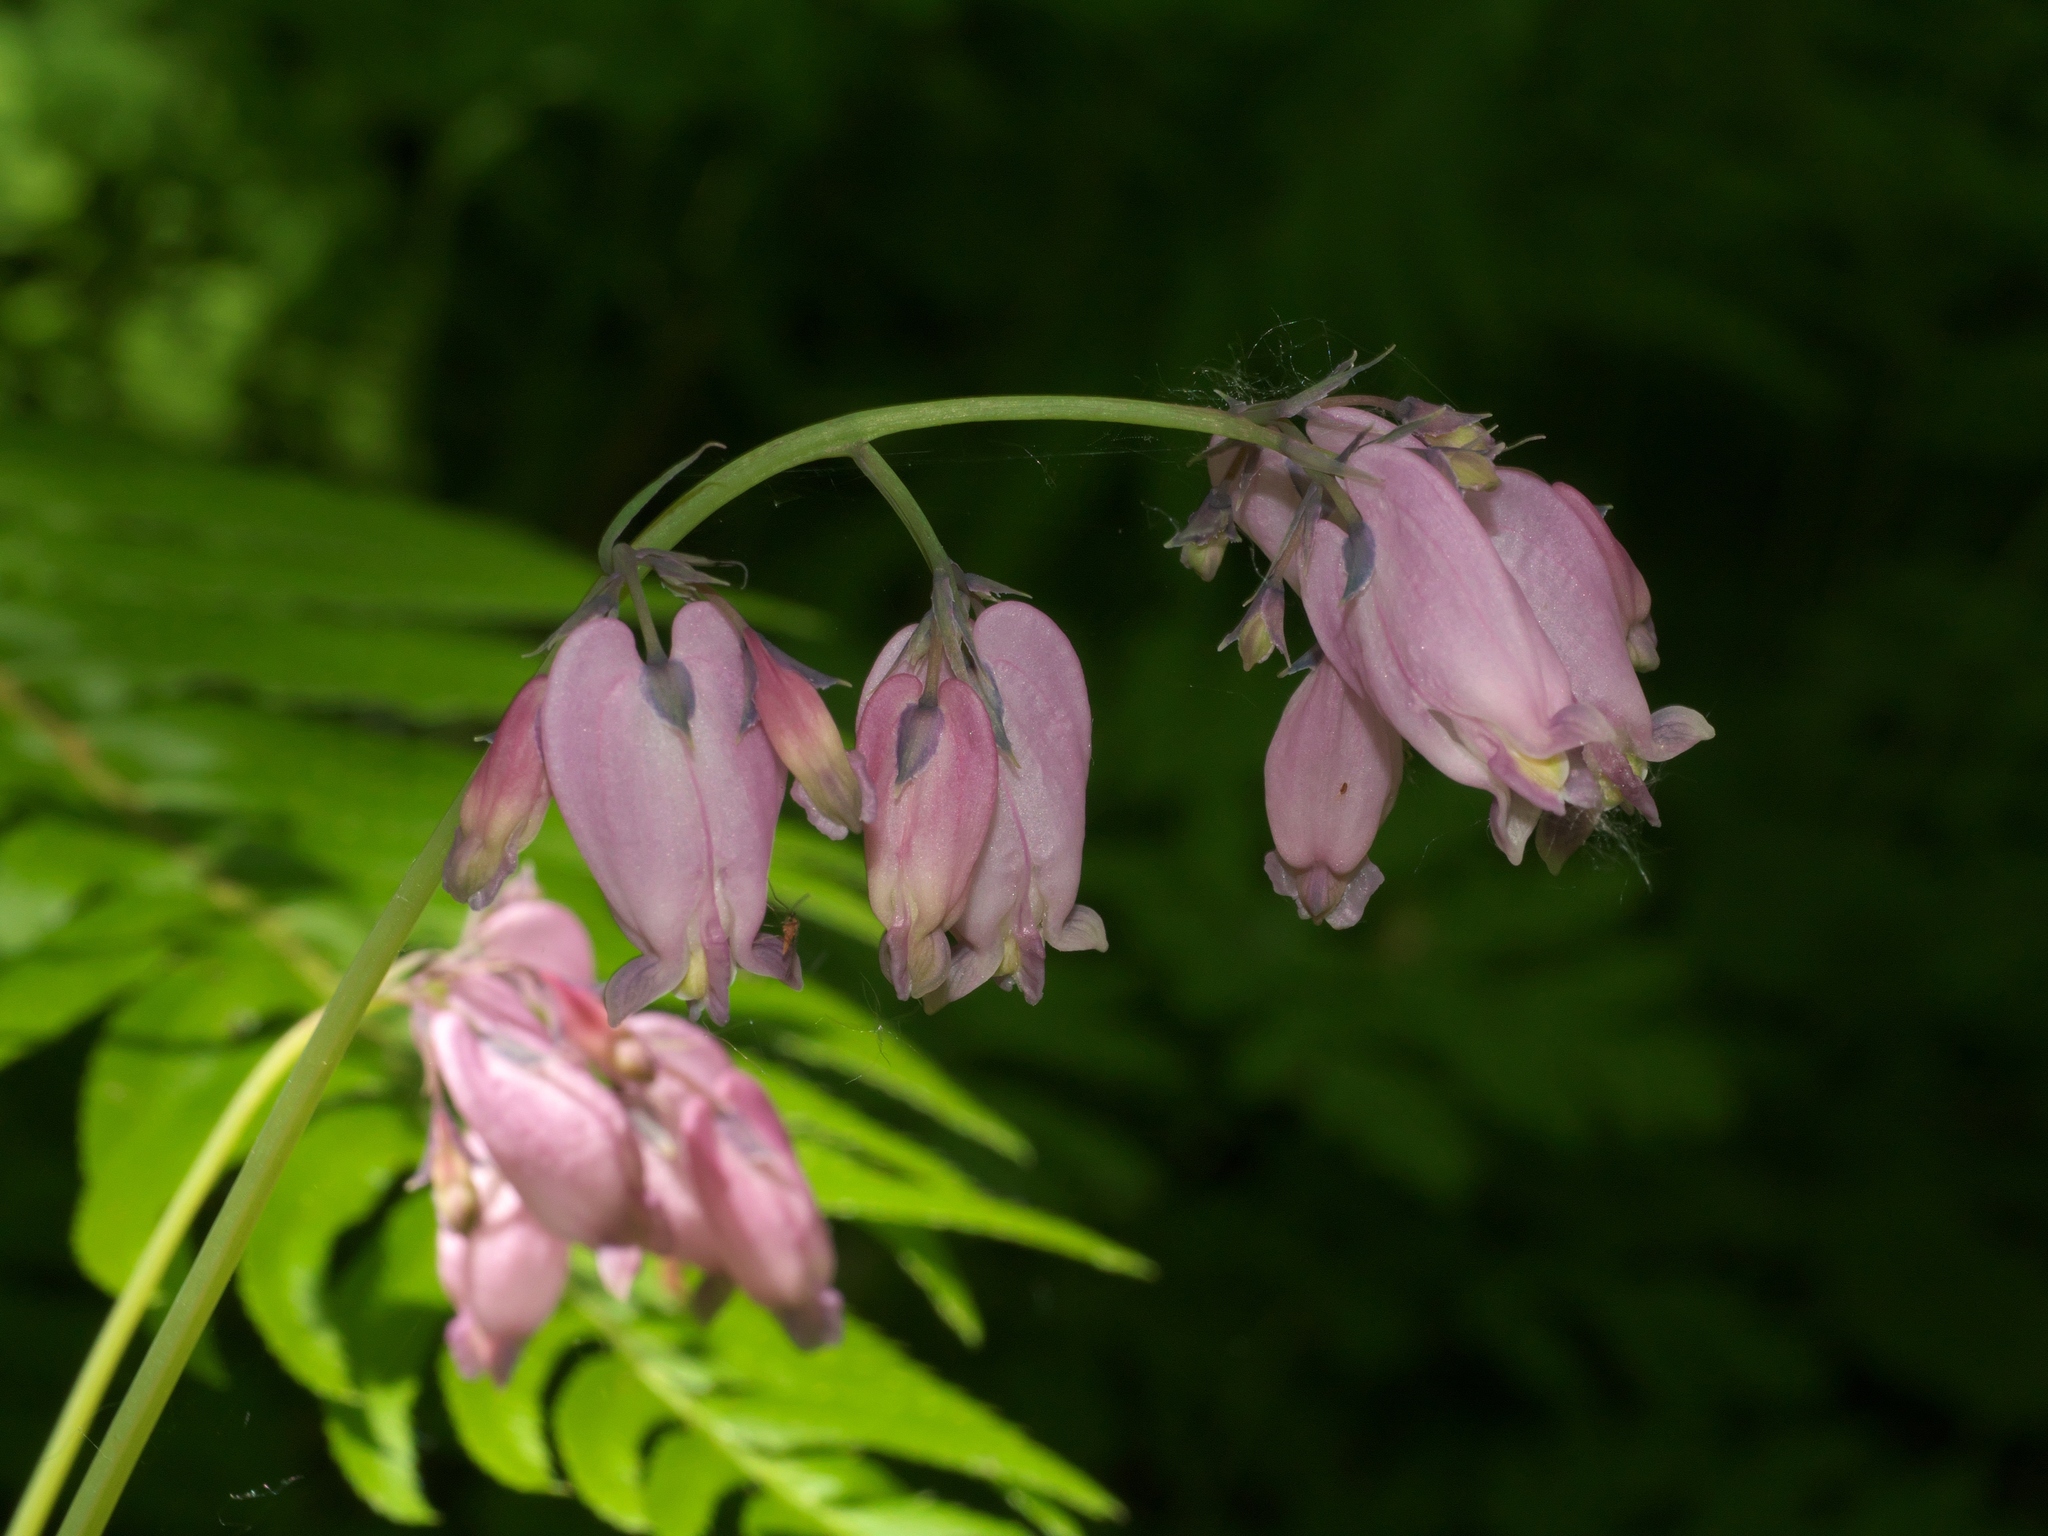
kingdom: Plantae
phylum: Tracheophyta
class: Magnoliopsida
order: Ranunculales
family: Papaveraceae
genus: Dicentra
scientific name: Dicentra formosa
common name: Bleeding-heart
